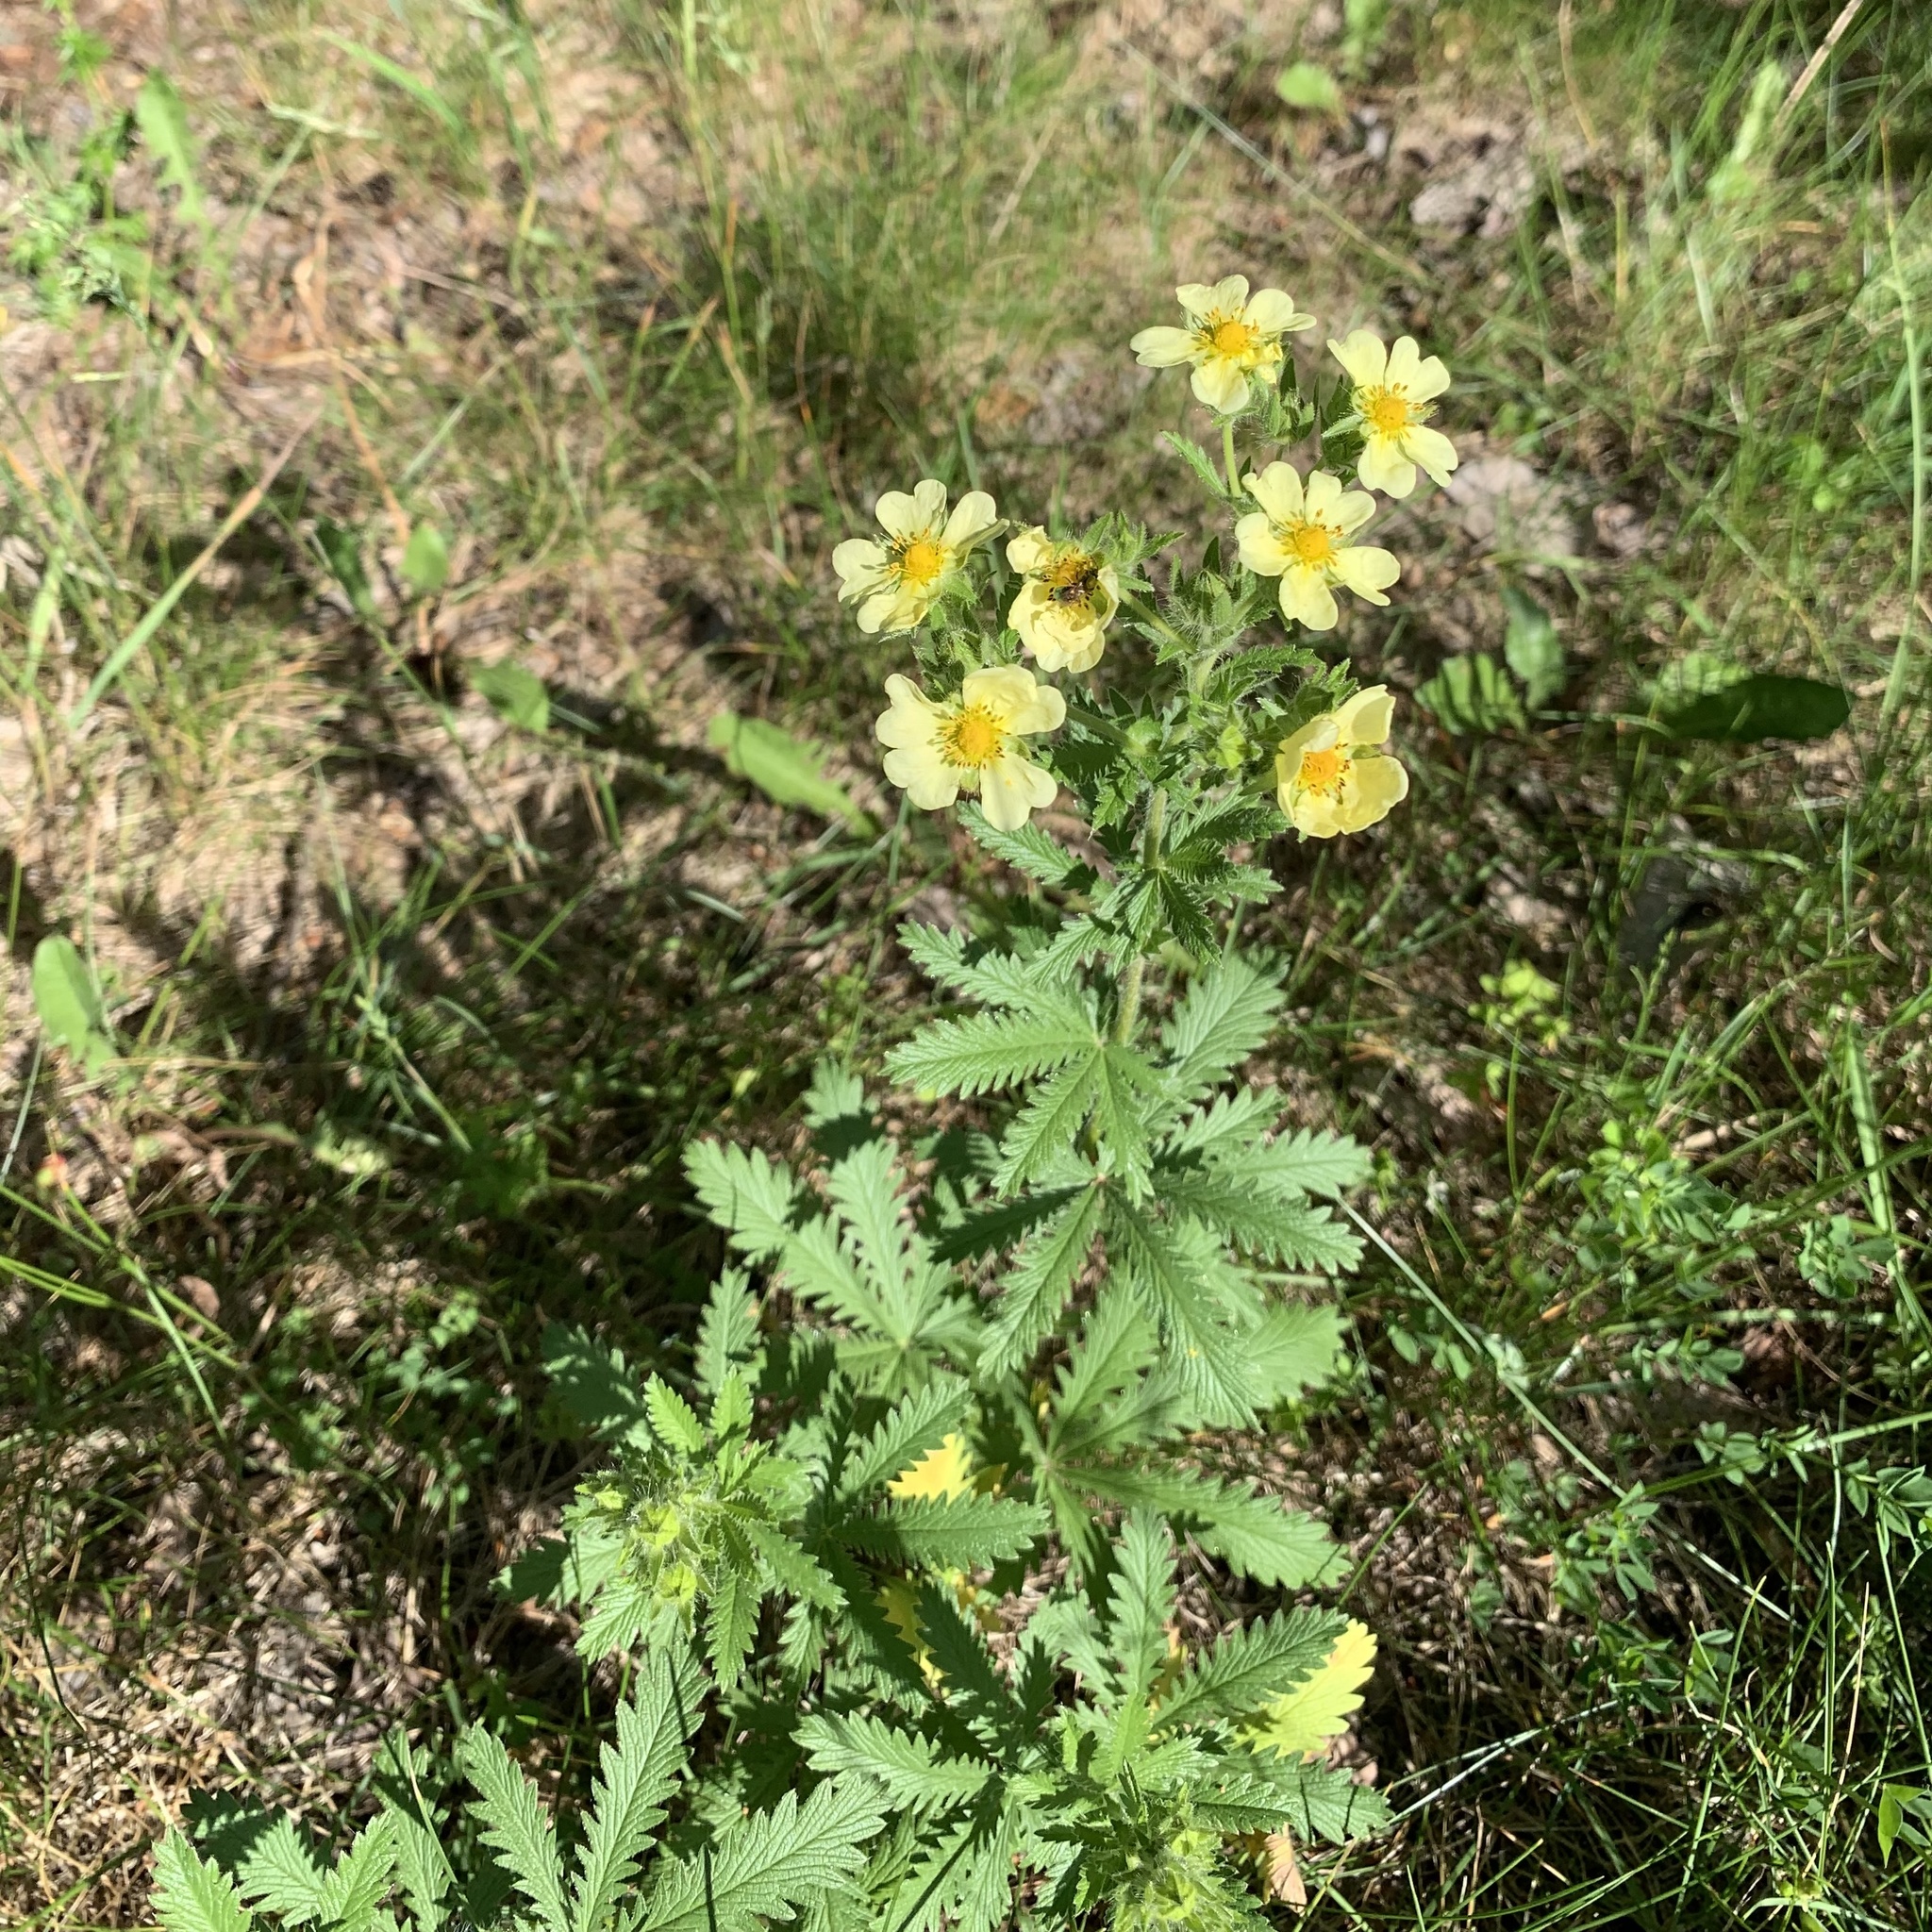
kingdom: Plantae
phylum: Tracheophyta
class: Magnoliopsida
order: Rosales
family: Rosaceae
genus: Potentilla
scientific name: Potentilla recta
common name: Sulphur cinquefoil
